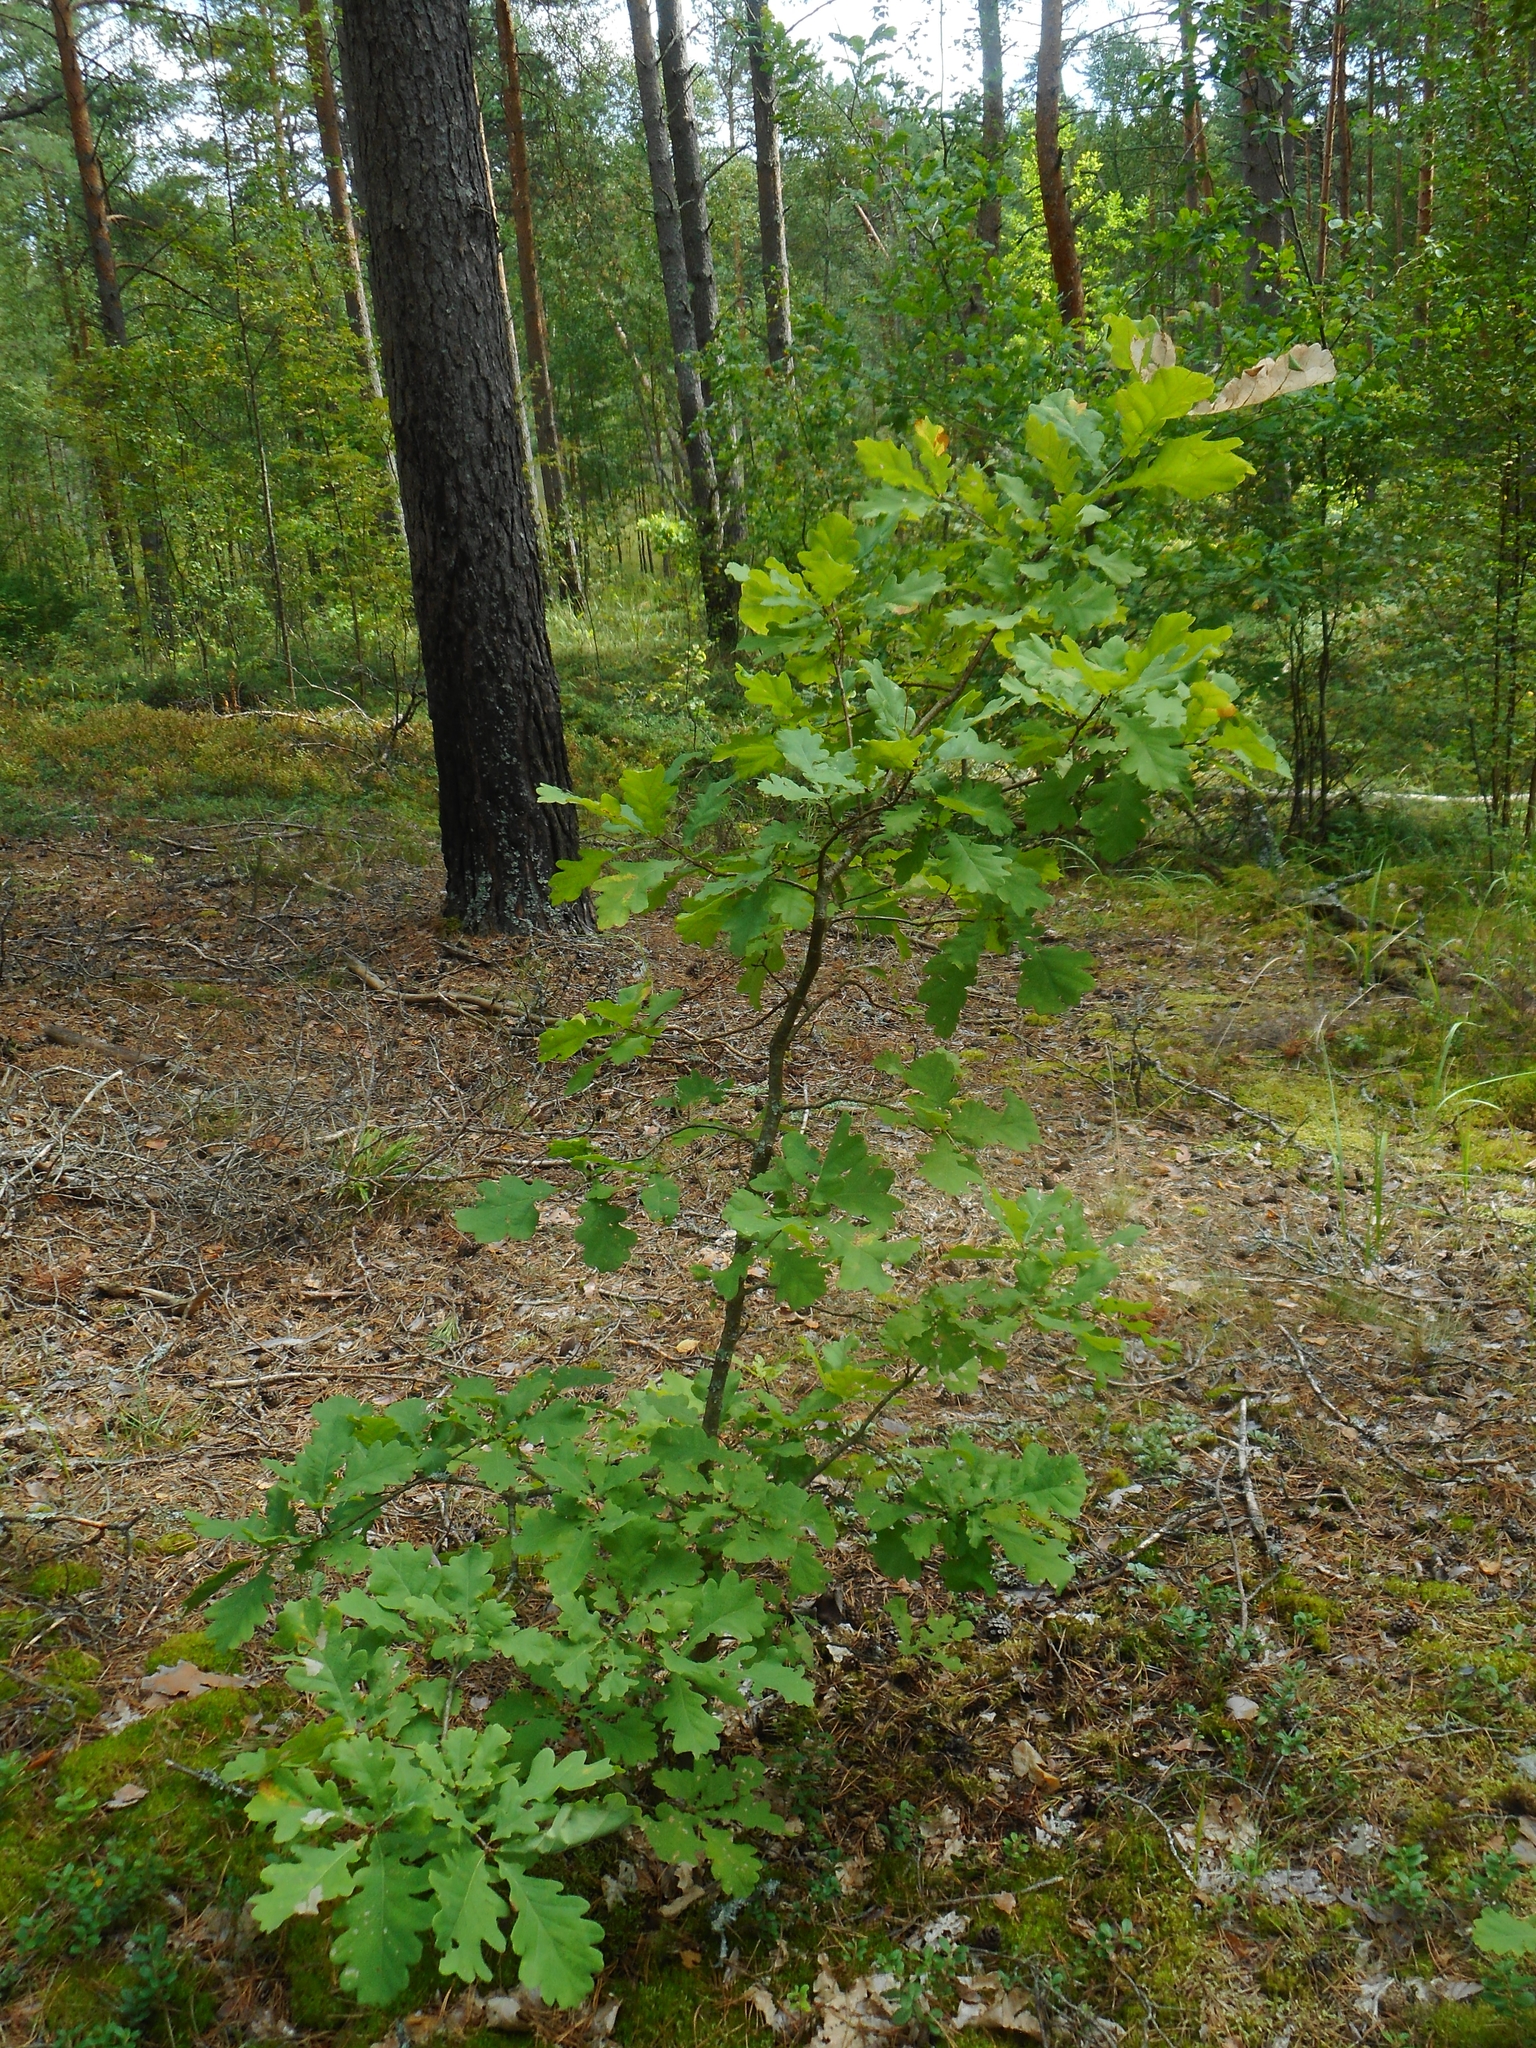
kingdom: Plantae
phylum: Tracheophyta
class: Magnoliopsida
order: Fagales
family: Fagaceae
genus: Quercus
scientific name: Quercus robur
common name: Pedunculate oak
